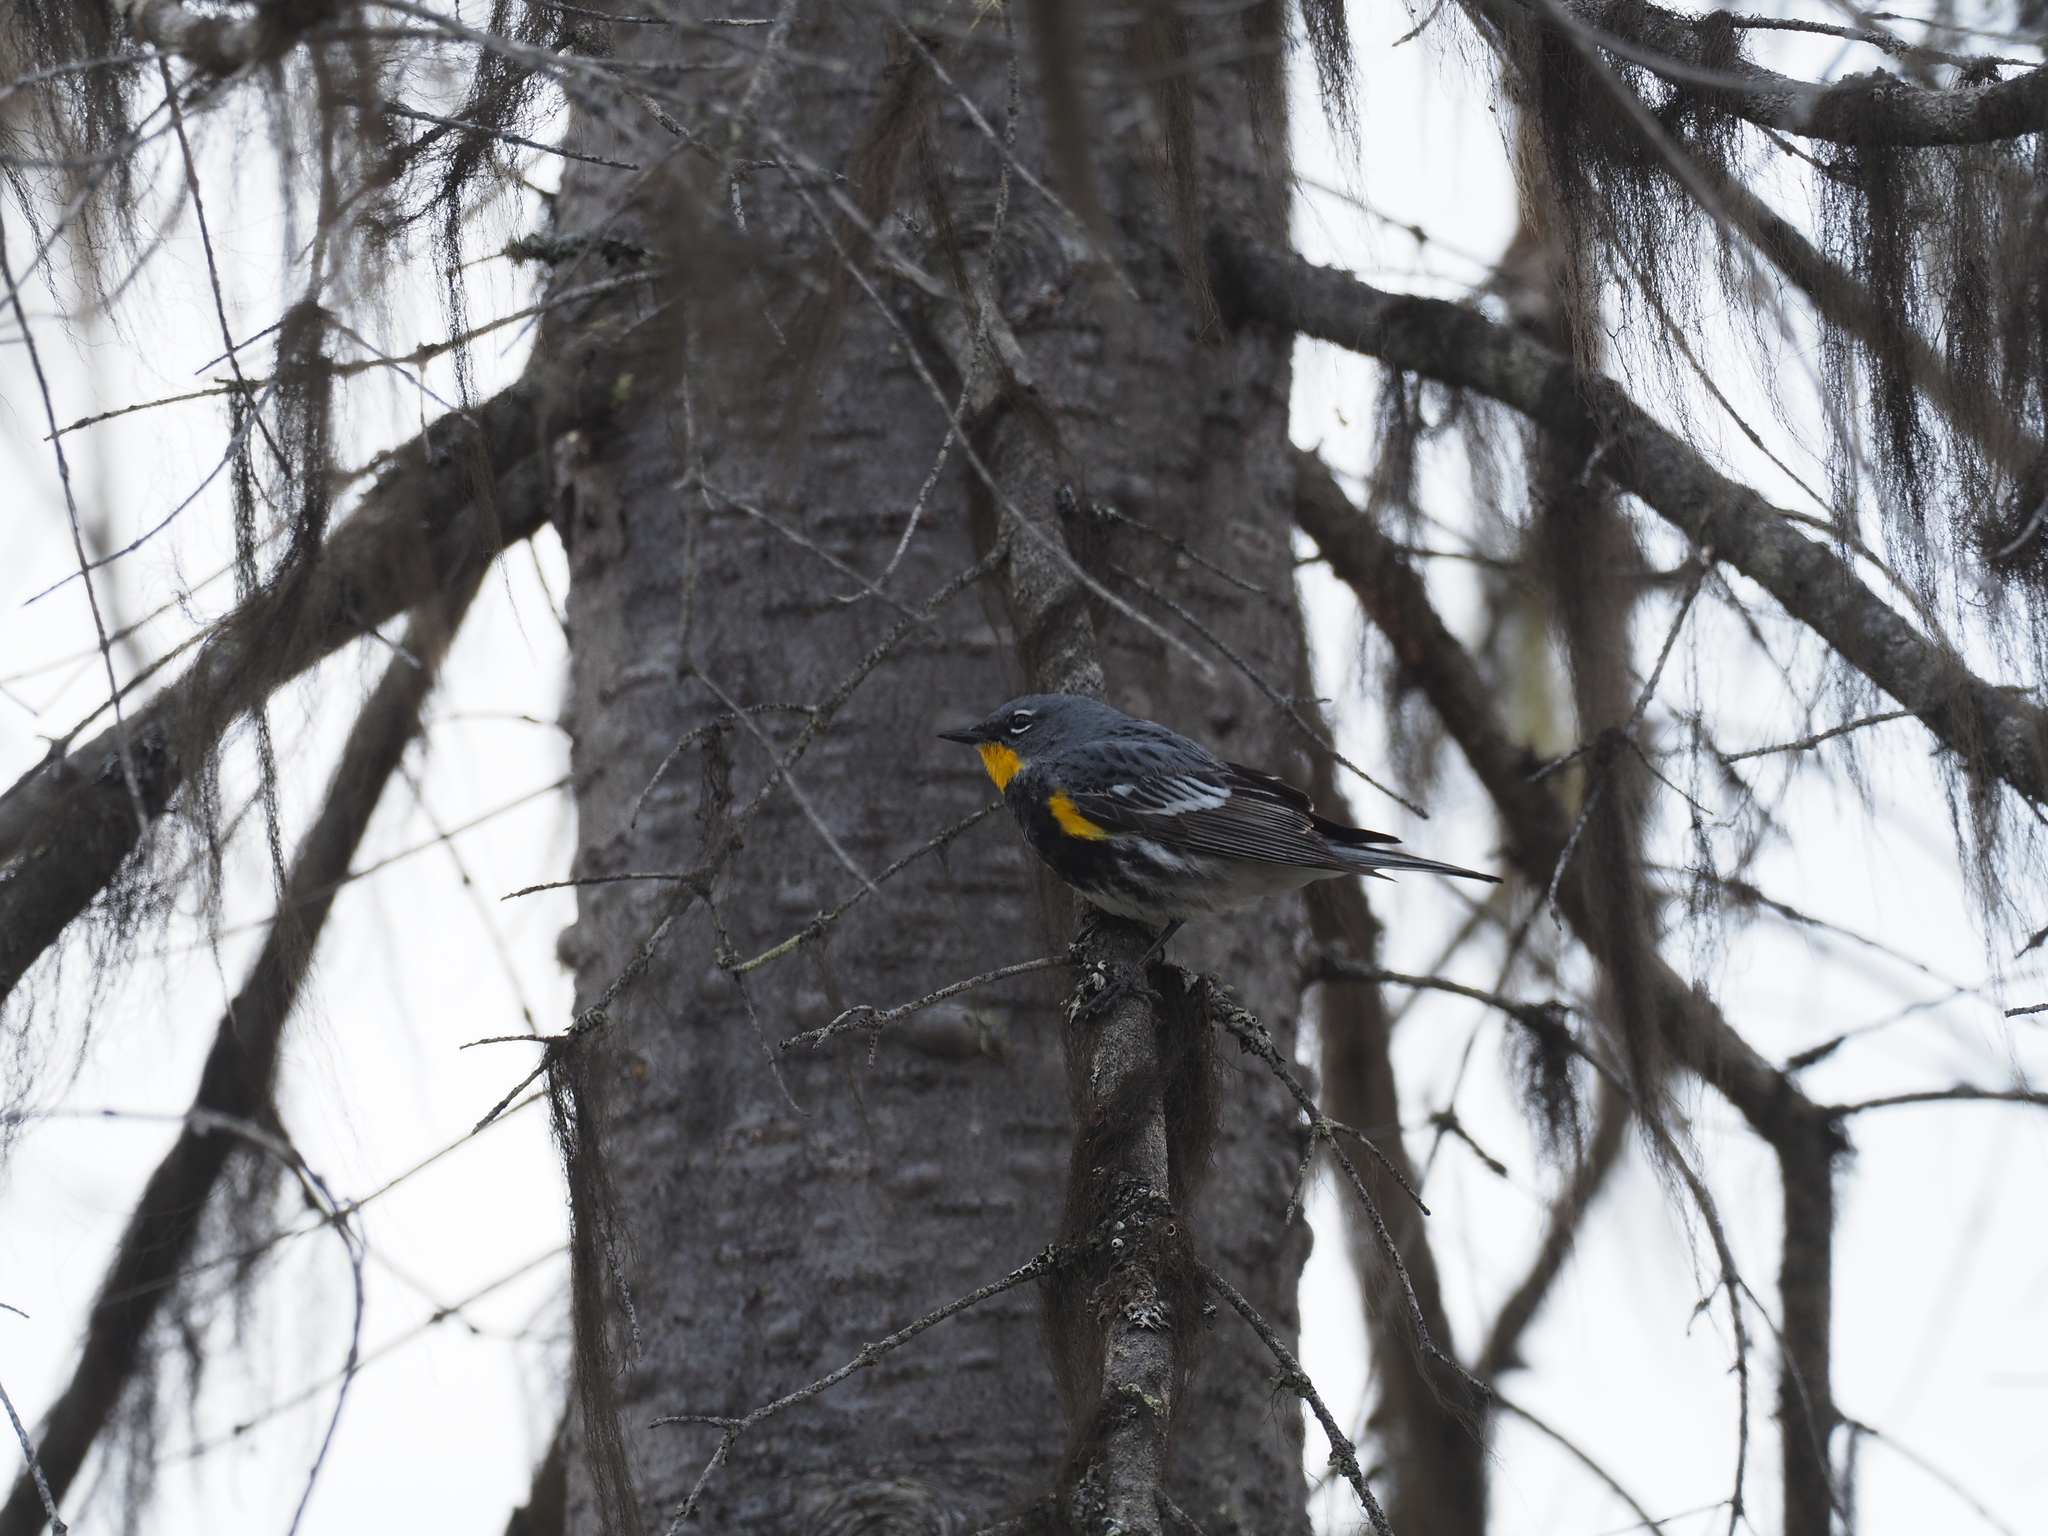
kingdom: Animalia
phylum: Chordata
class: Aves
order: Passeriformes
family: Parulidae
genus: Setophaga
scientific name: Setophaga auduboni
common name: Audubon's warbler
